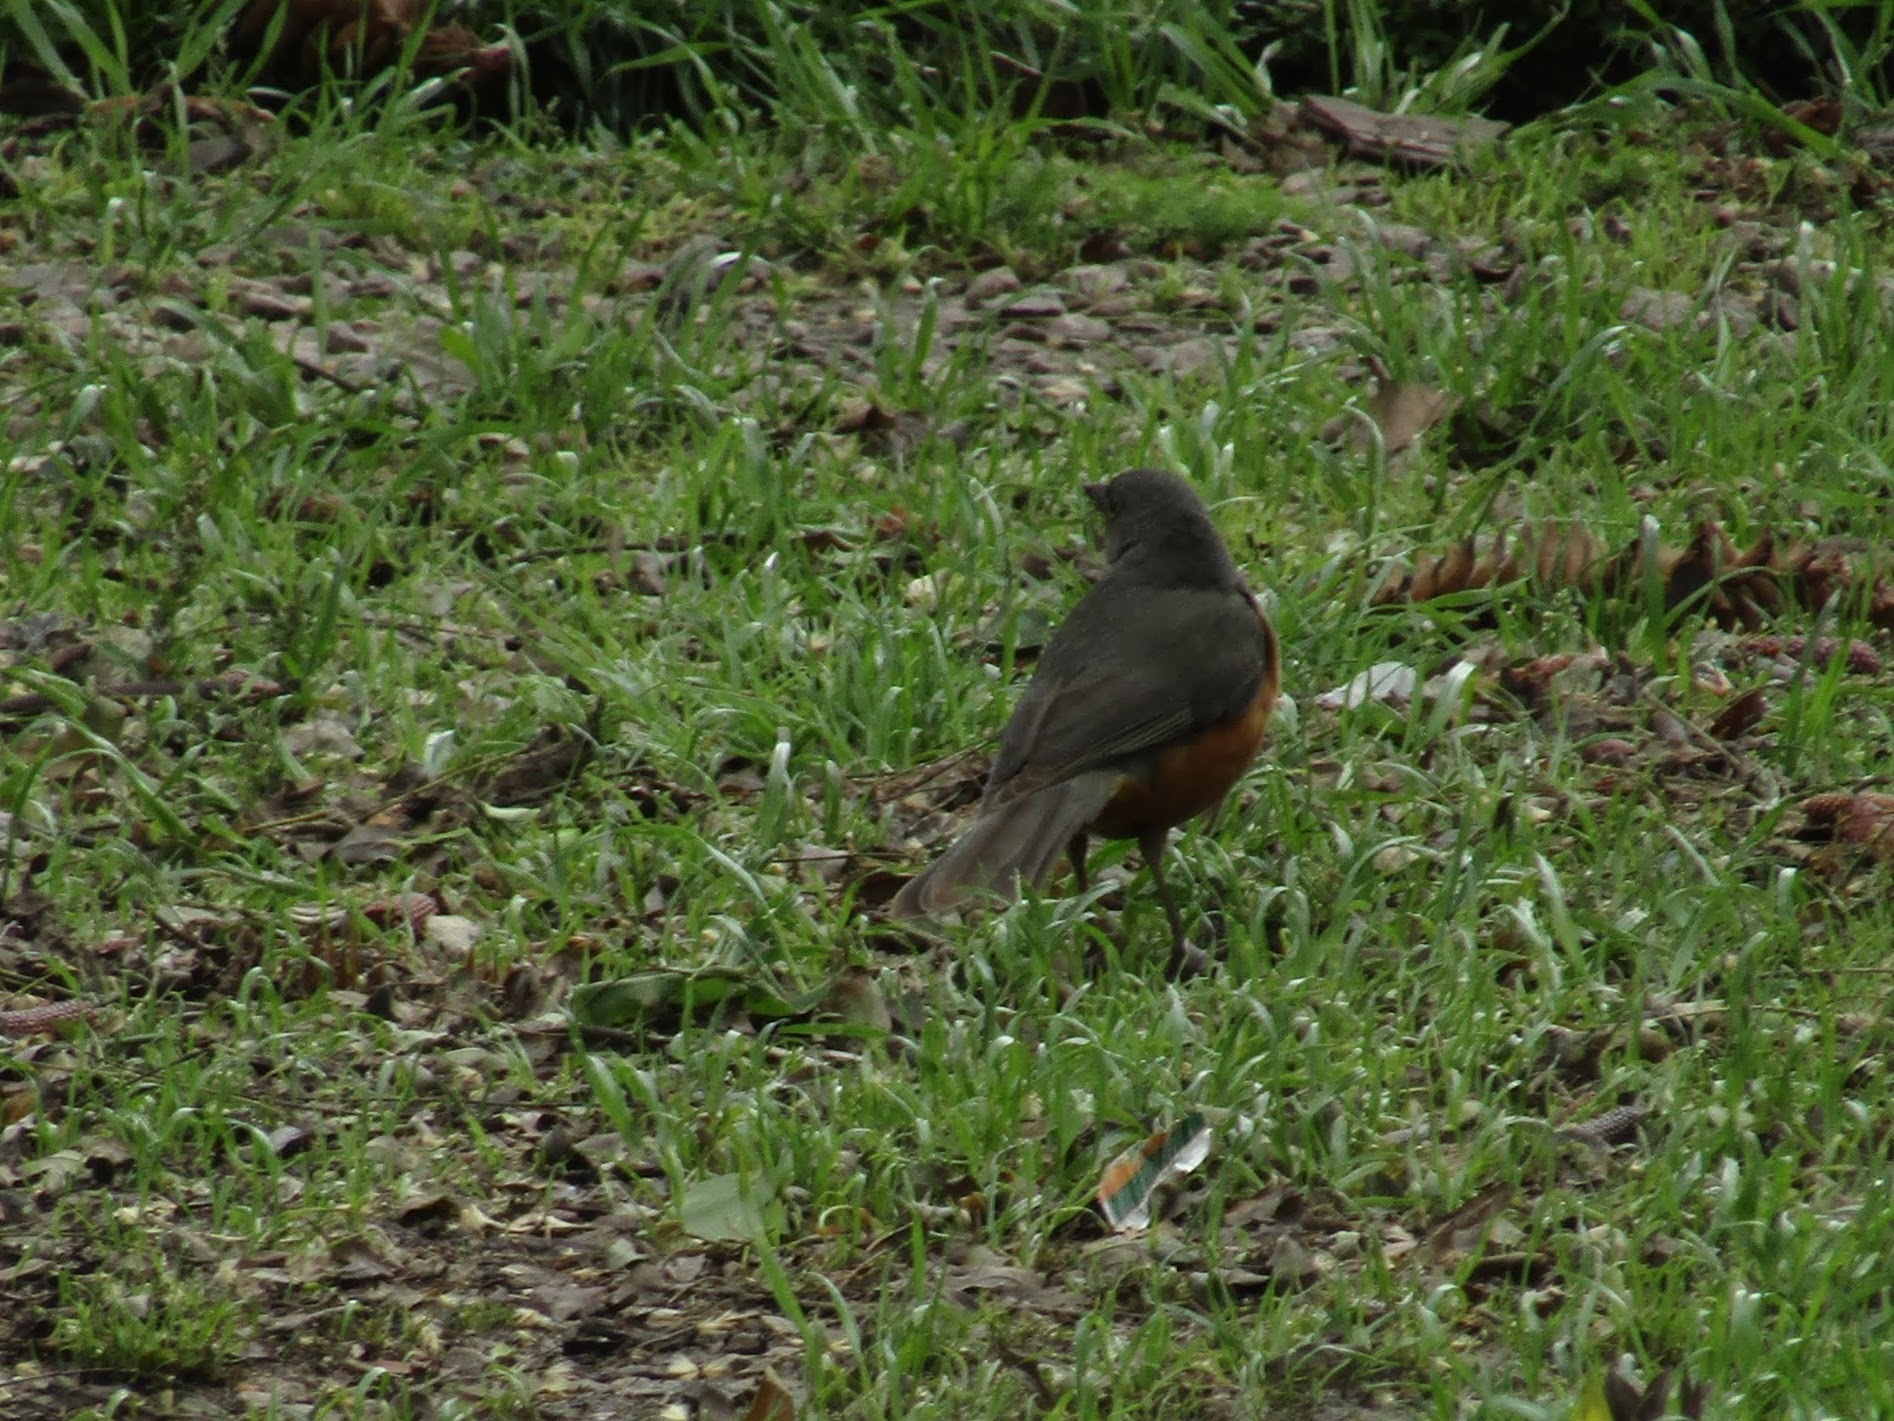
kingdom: Animalia
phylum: Chordata
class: Aves
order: Passeriformes
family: Turdidae
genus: Turdus
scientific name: Turdus rufiventris
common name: Rufous-bellied thrush
